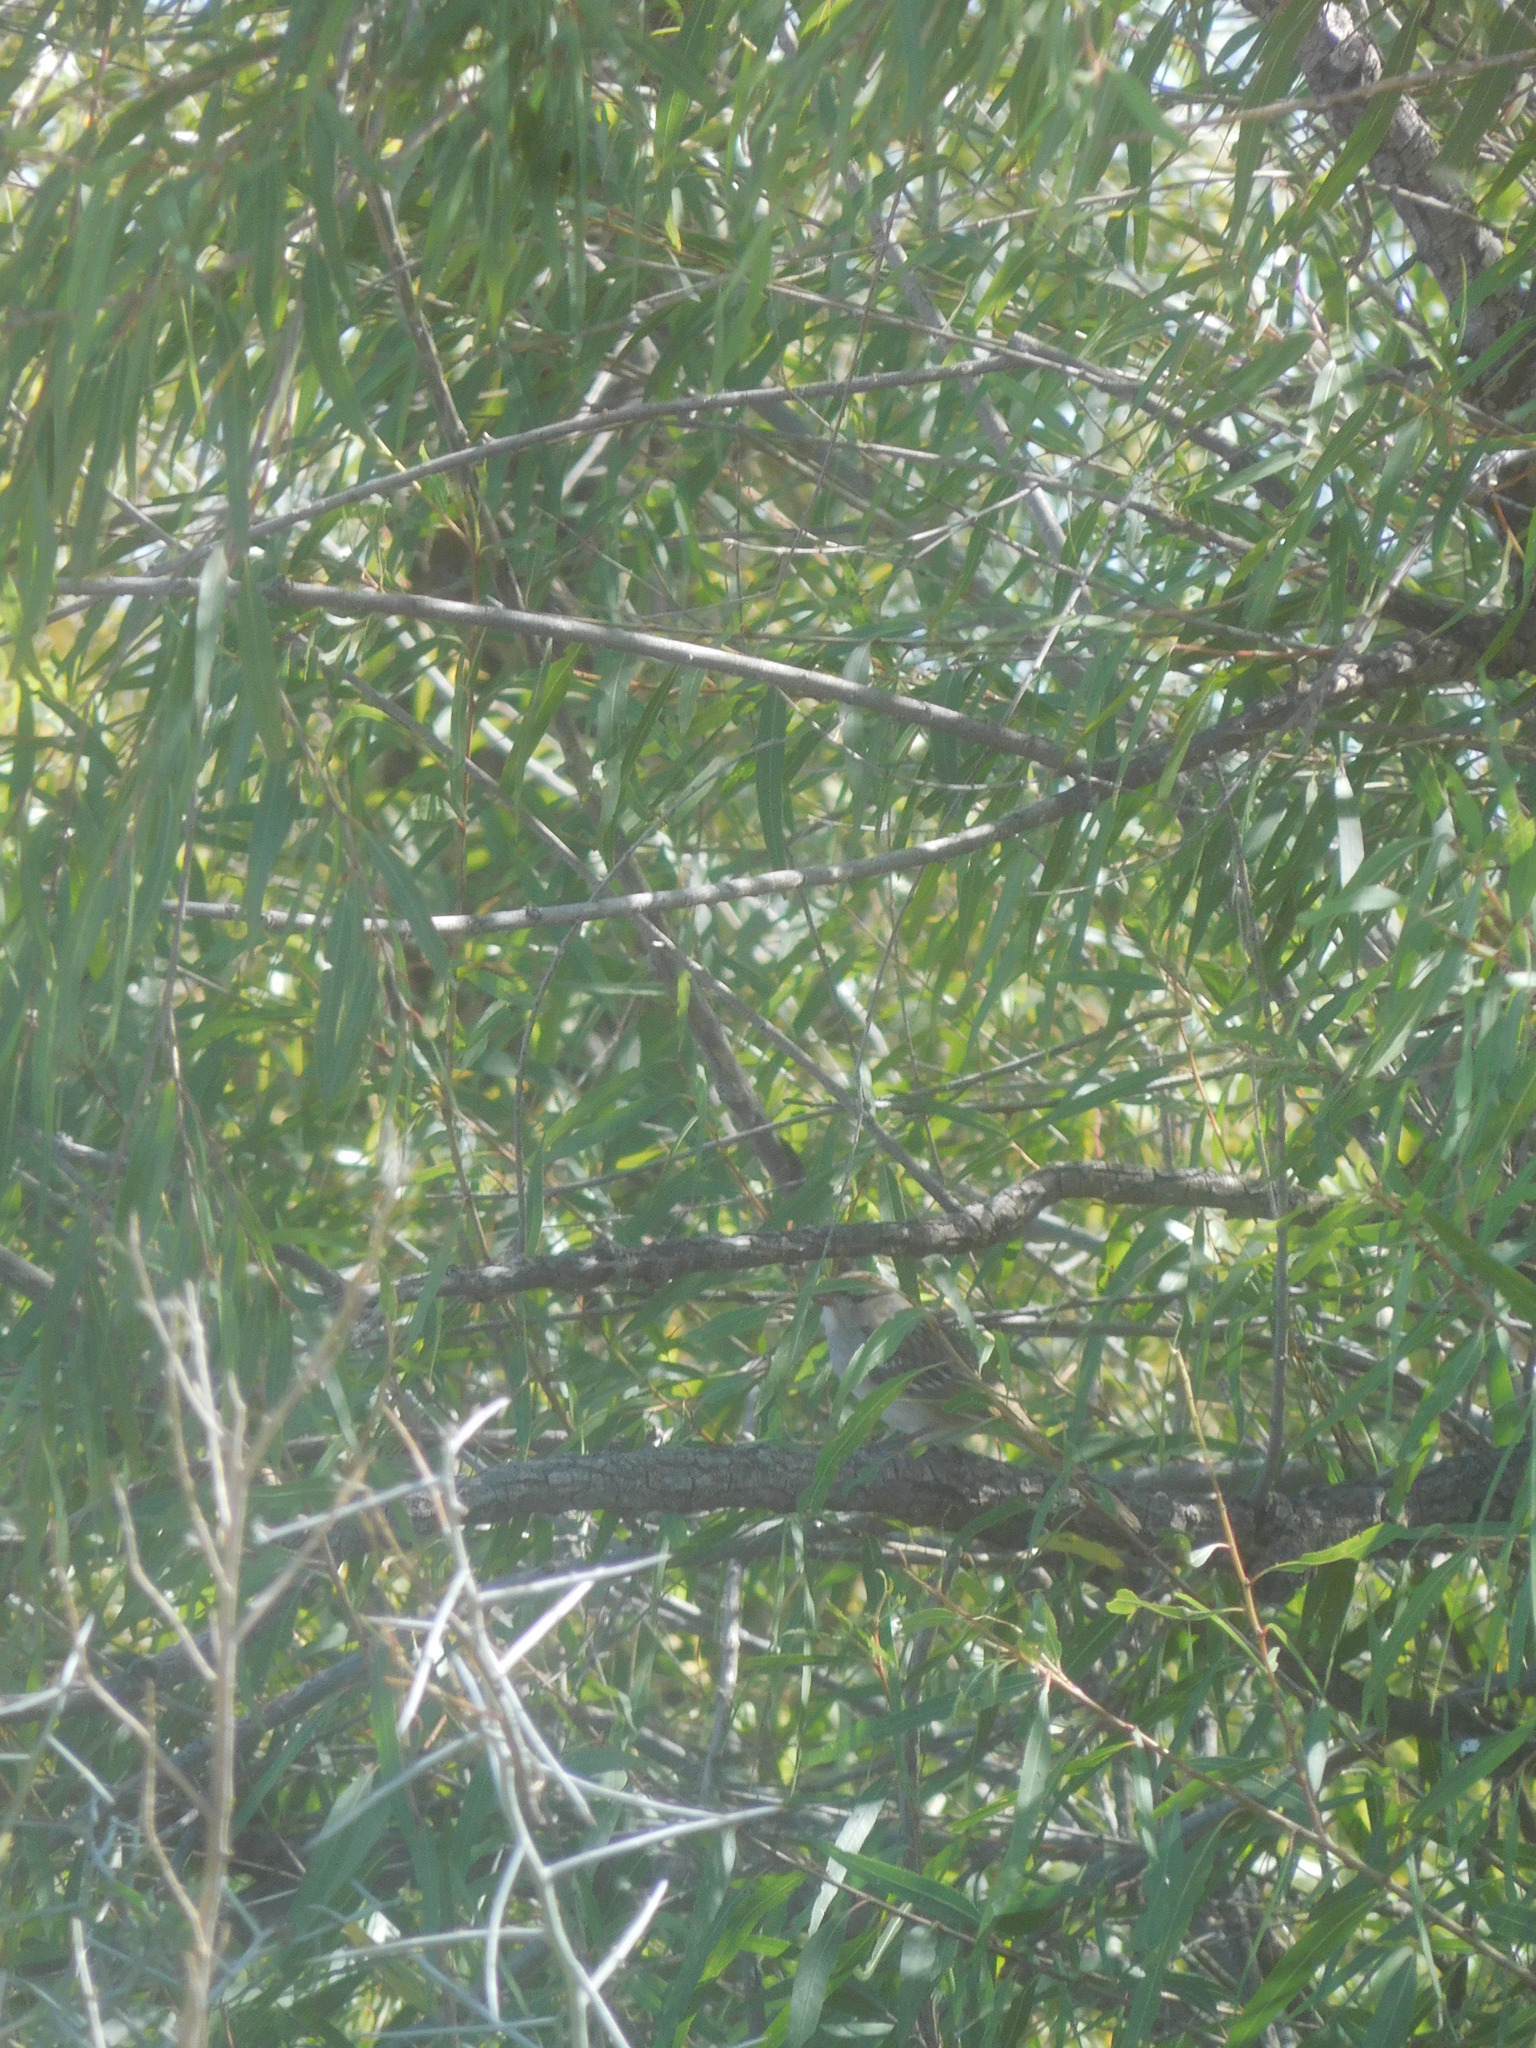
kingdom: Animalia
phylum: Chordata
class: Aves
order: Passeriformes
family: Passerellidae
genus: Zonotrichia
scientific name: Zonotrichia leucophrys
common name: White-crowned sparrow
